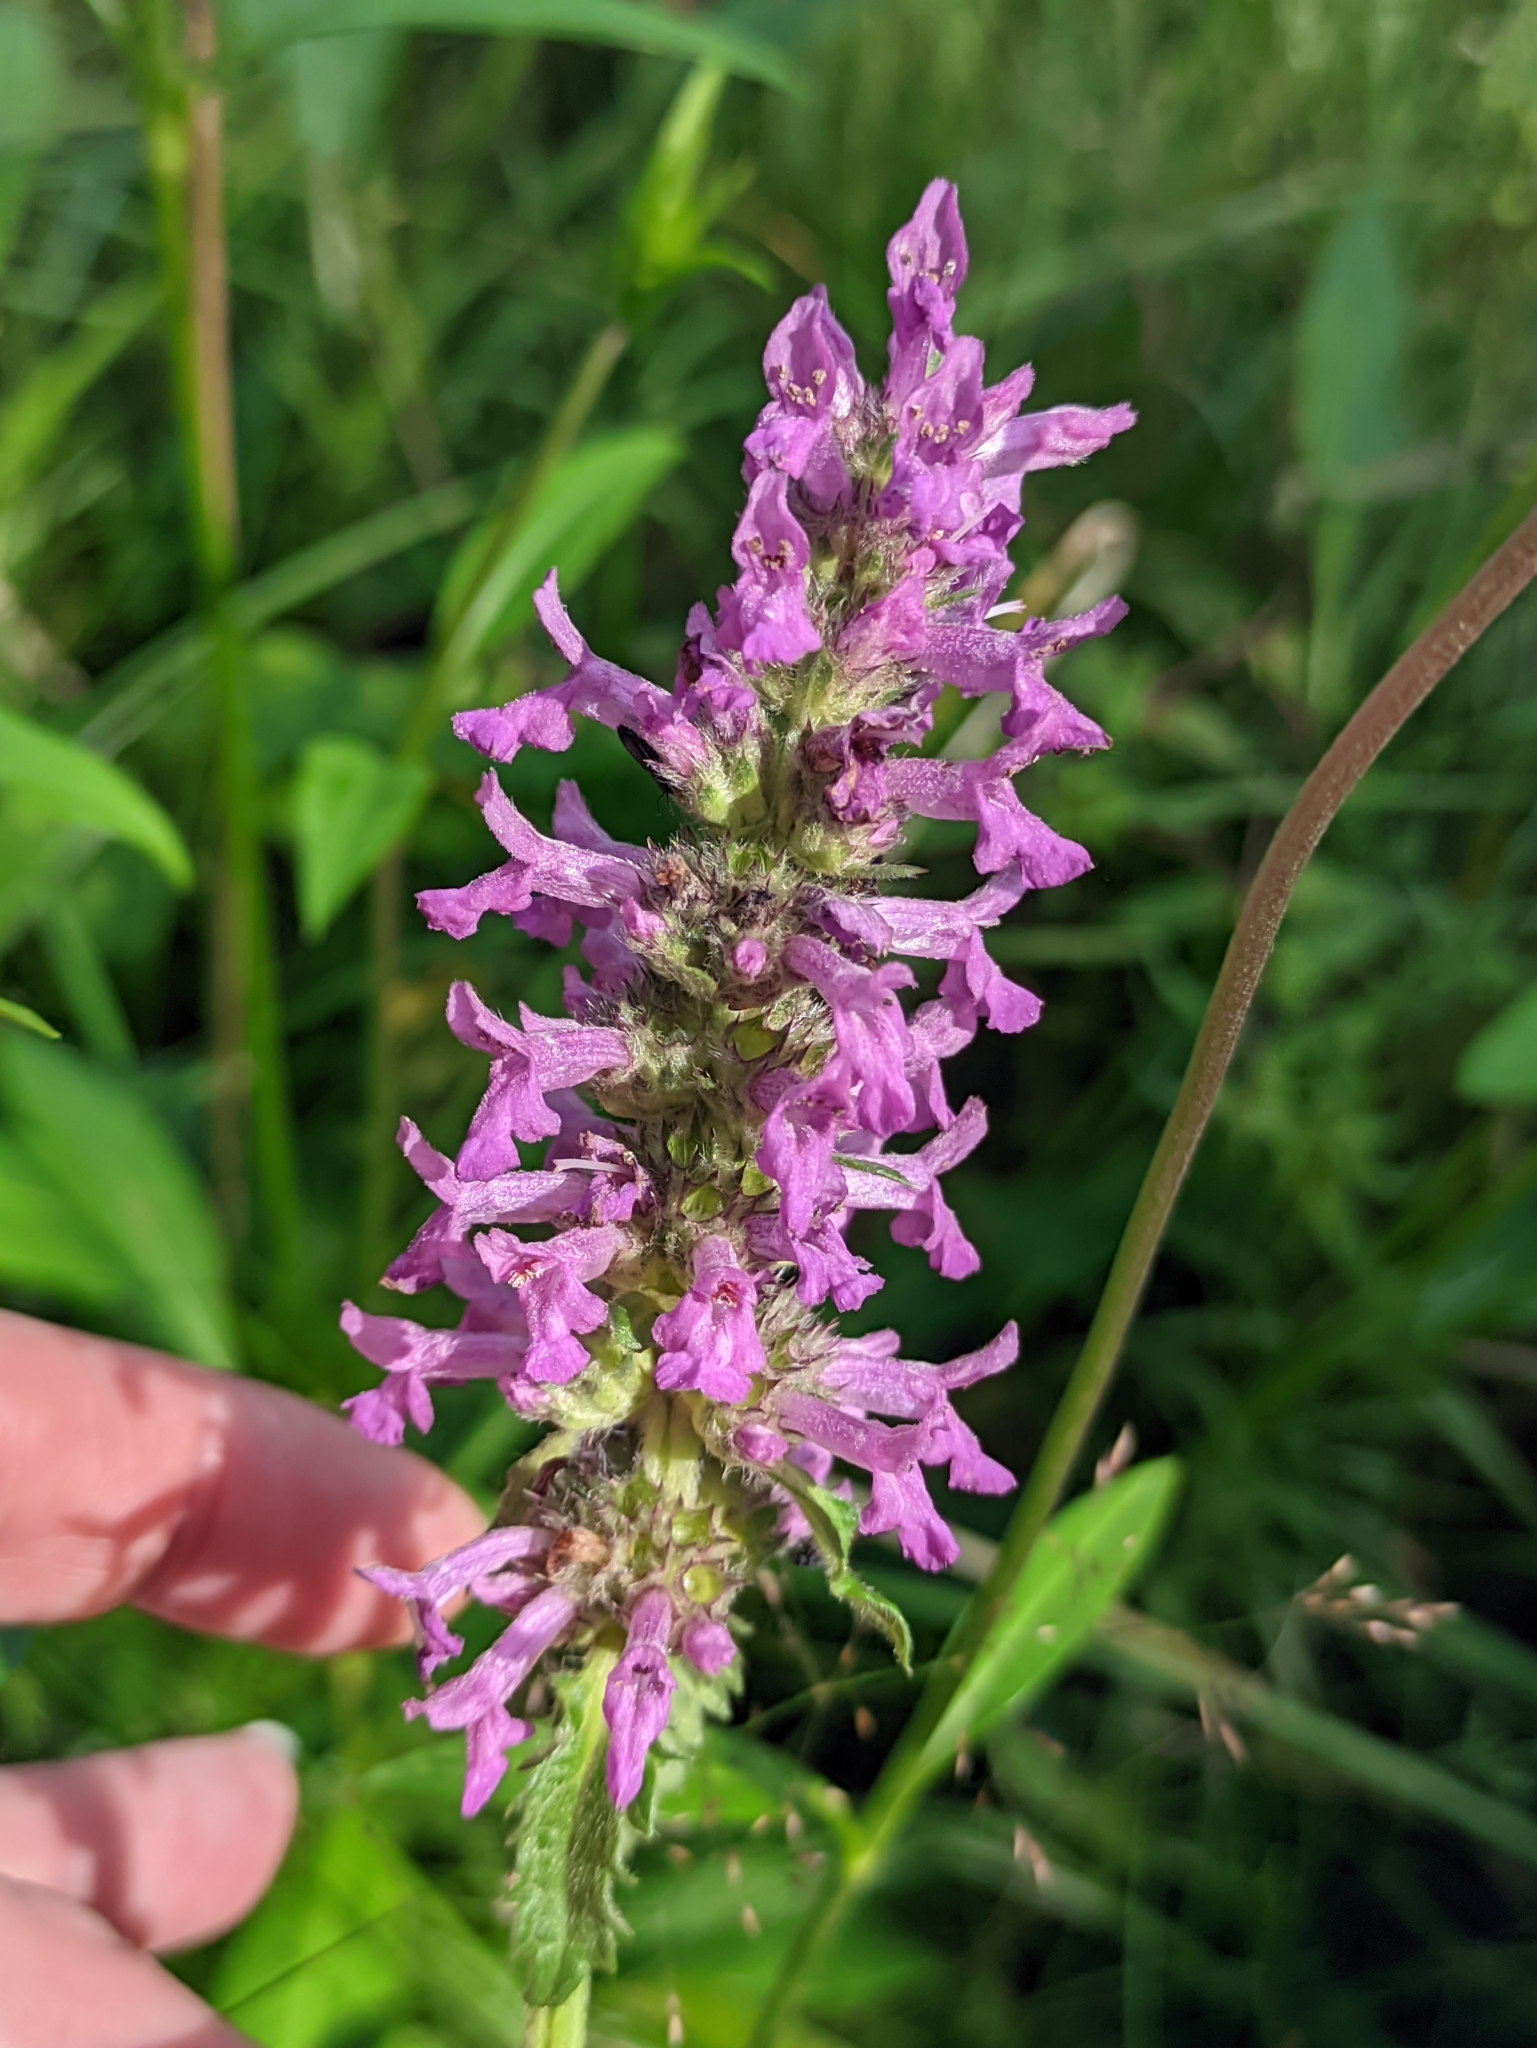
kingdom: Plantae
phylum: Tracheophyta
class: Magnoliopsida
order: Lamiales
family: Lamiaceae
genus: Betonica
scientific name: Betonica officinalis
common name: Bishop's-wort
